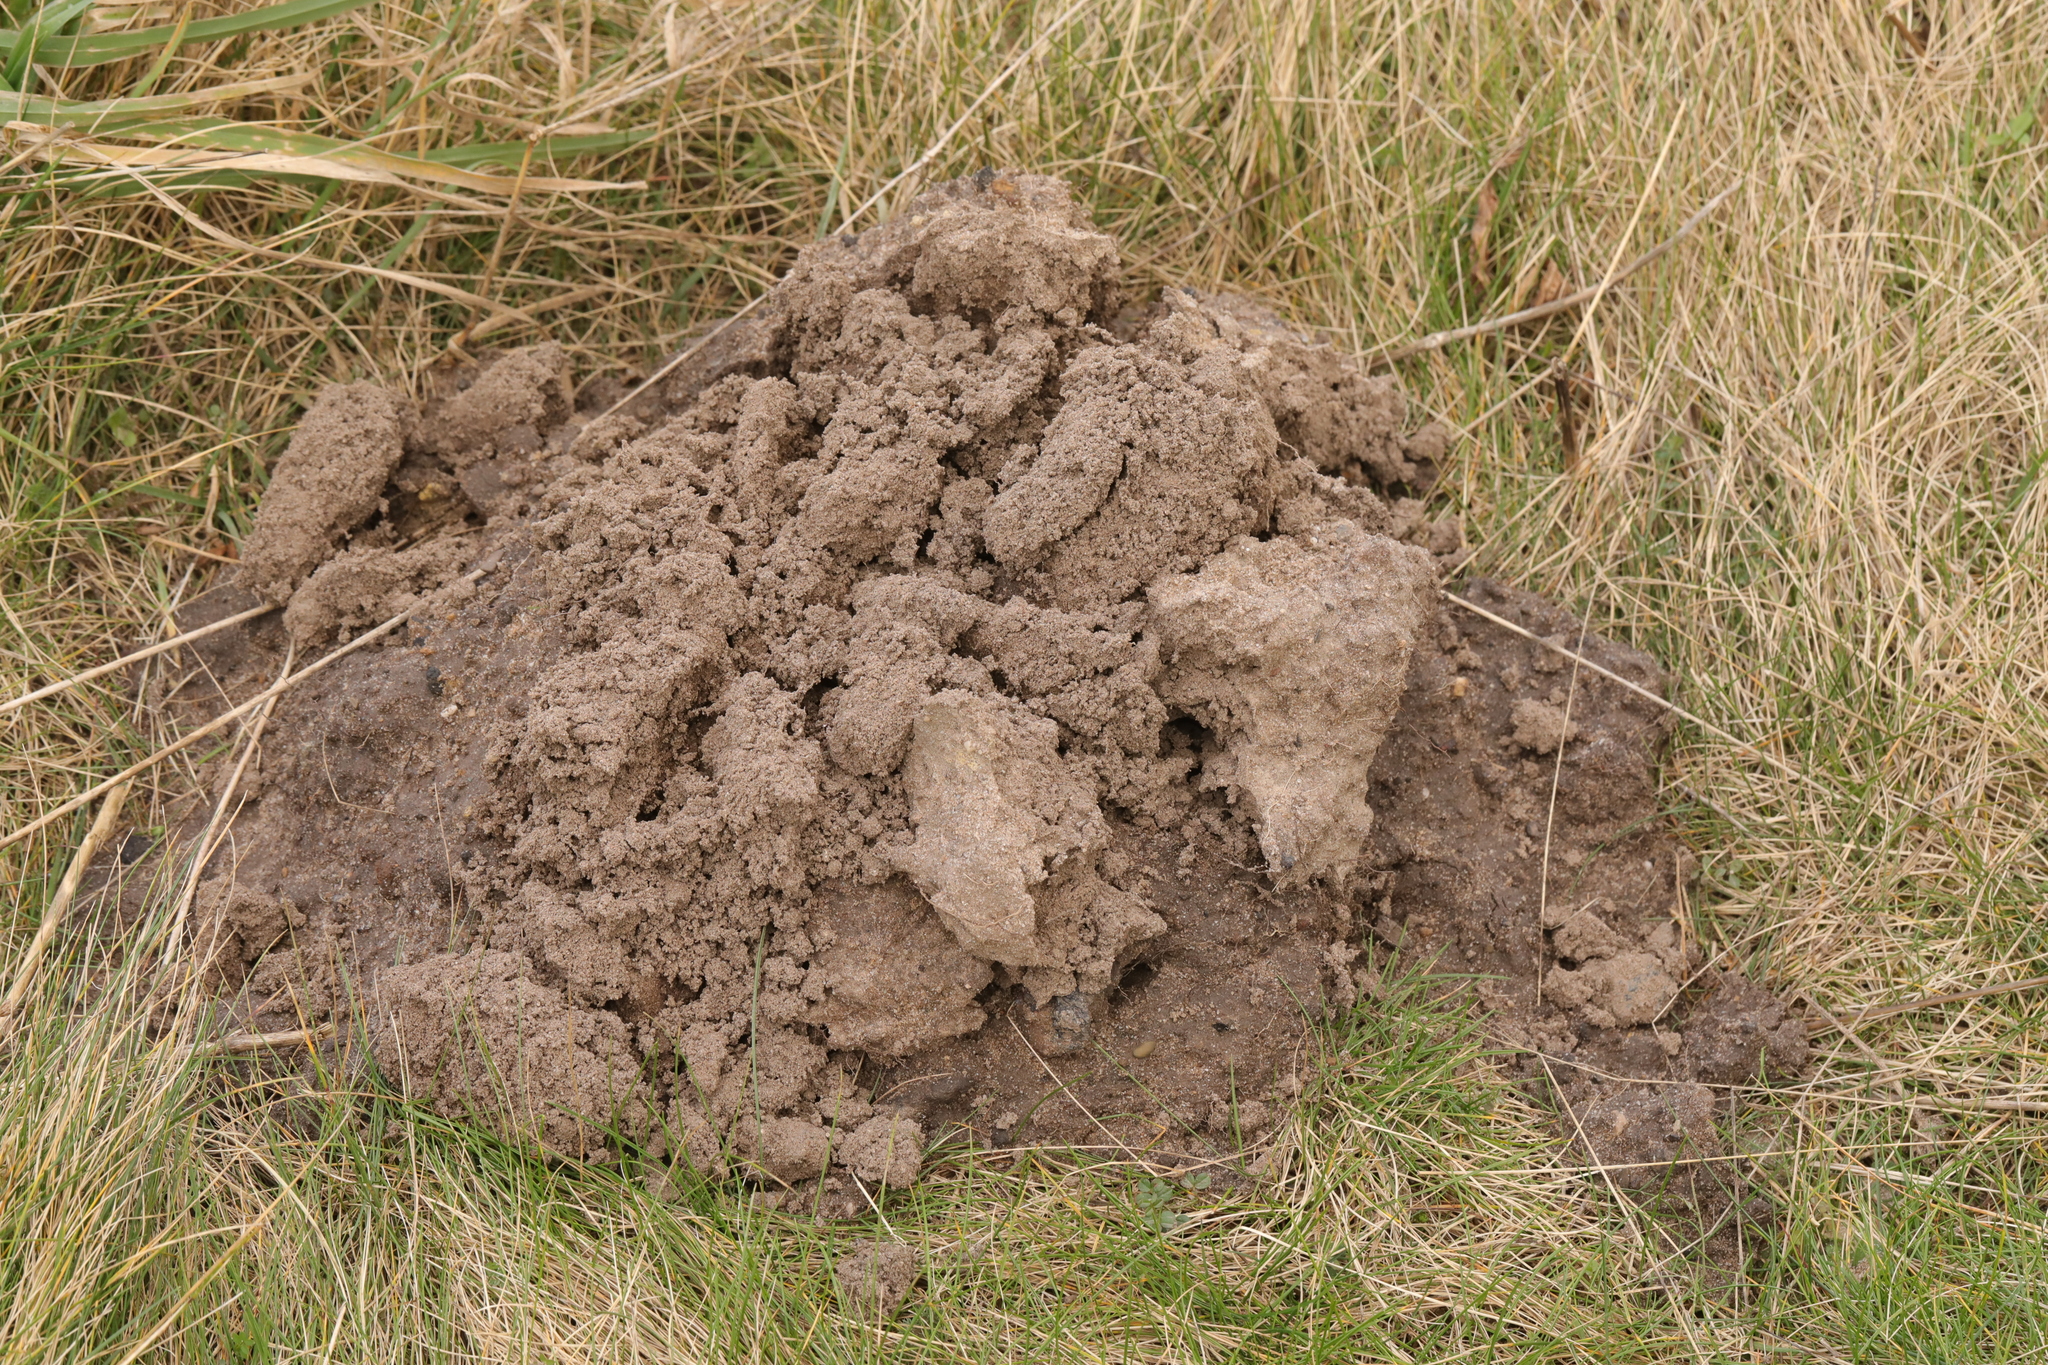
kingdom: Animalia
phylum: Chordata
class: Mammalia
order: Soricomorpha
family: Talpidae
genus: Talpa
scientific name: Talpa europaea
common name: European mole
